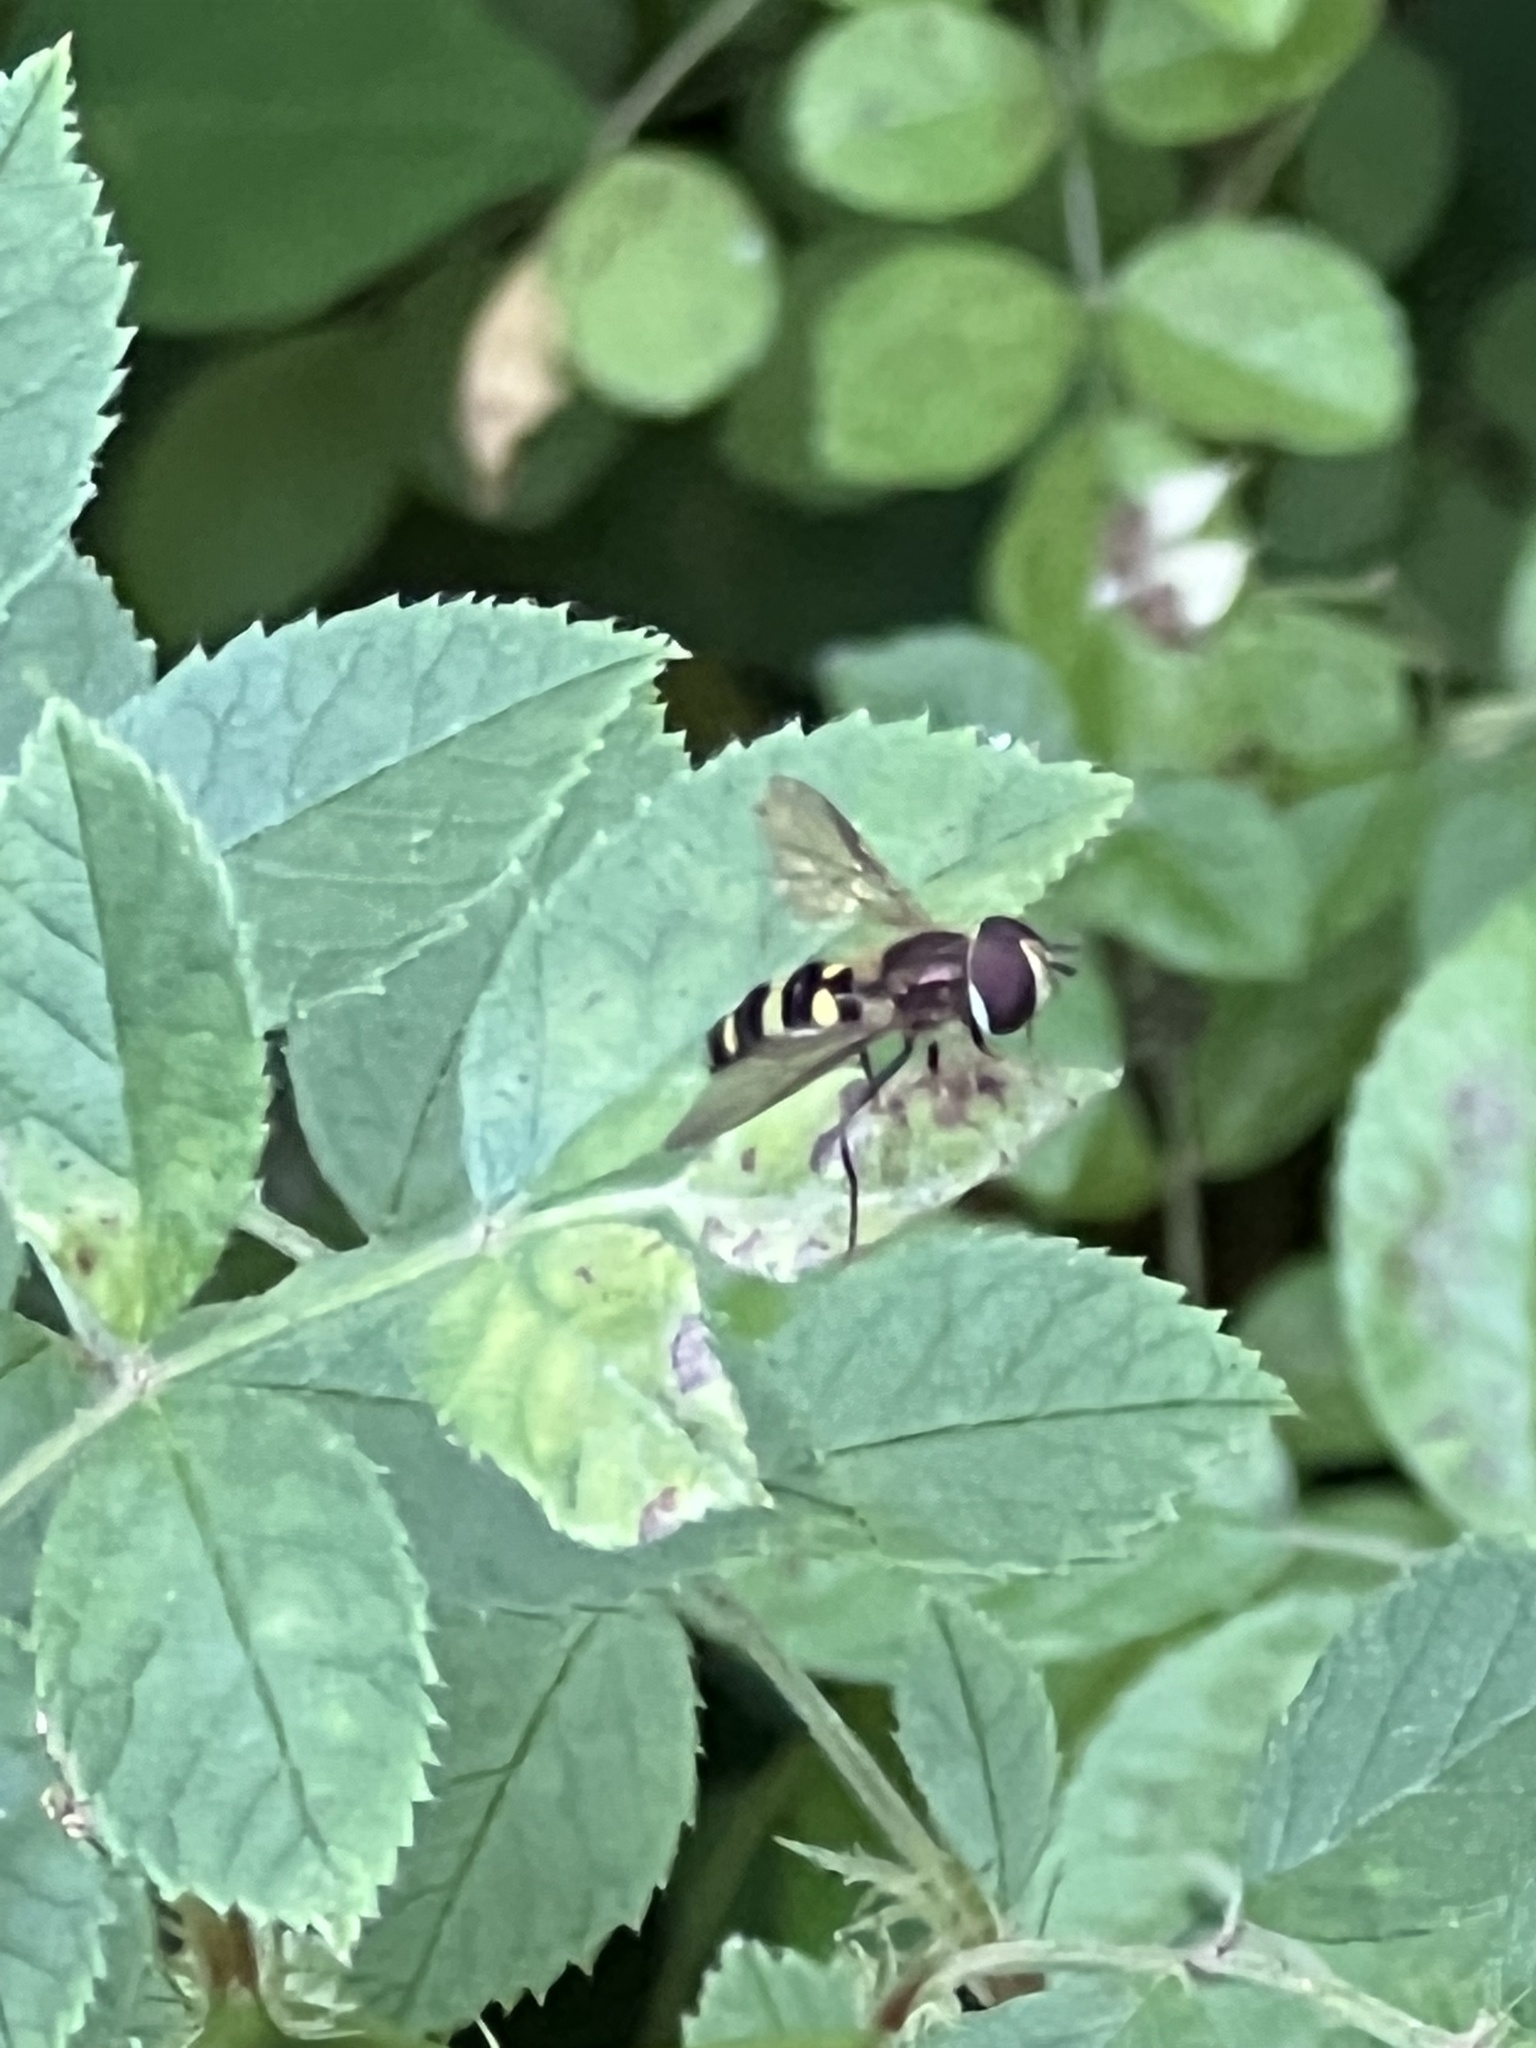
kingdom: Animalia
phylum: Arthropoda
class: Insecta
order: Diptera
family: Syrphidae
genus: Eupeodes
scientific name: Eupeodes
